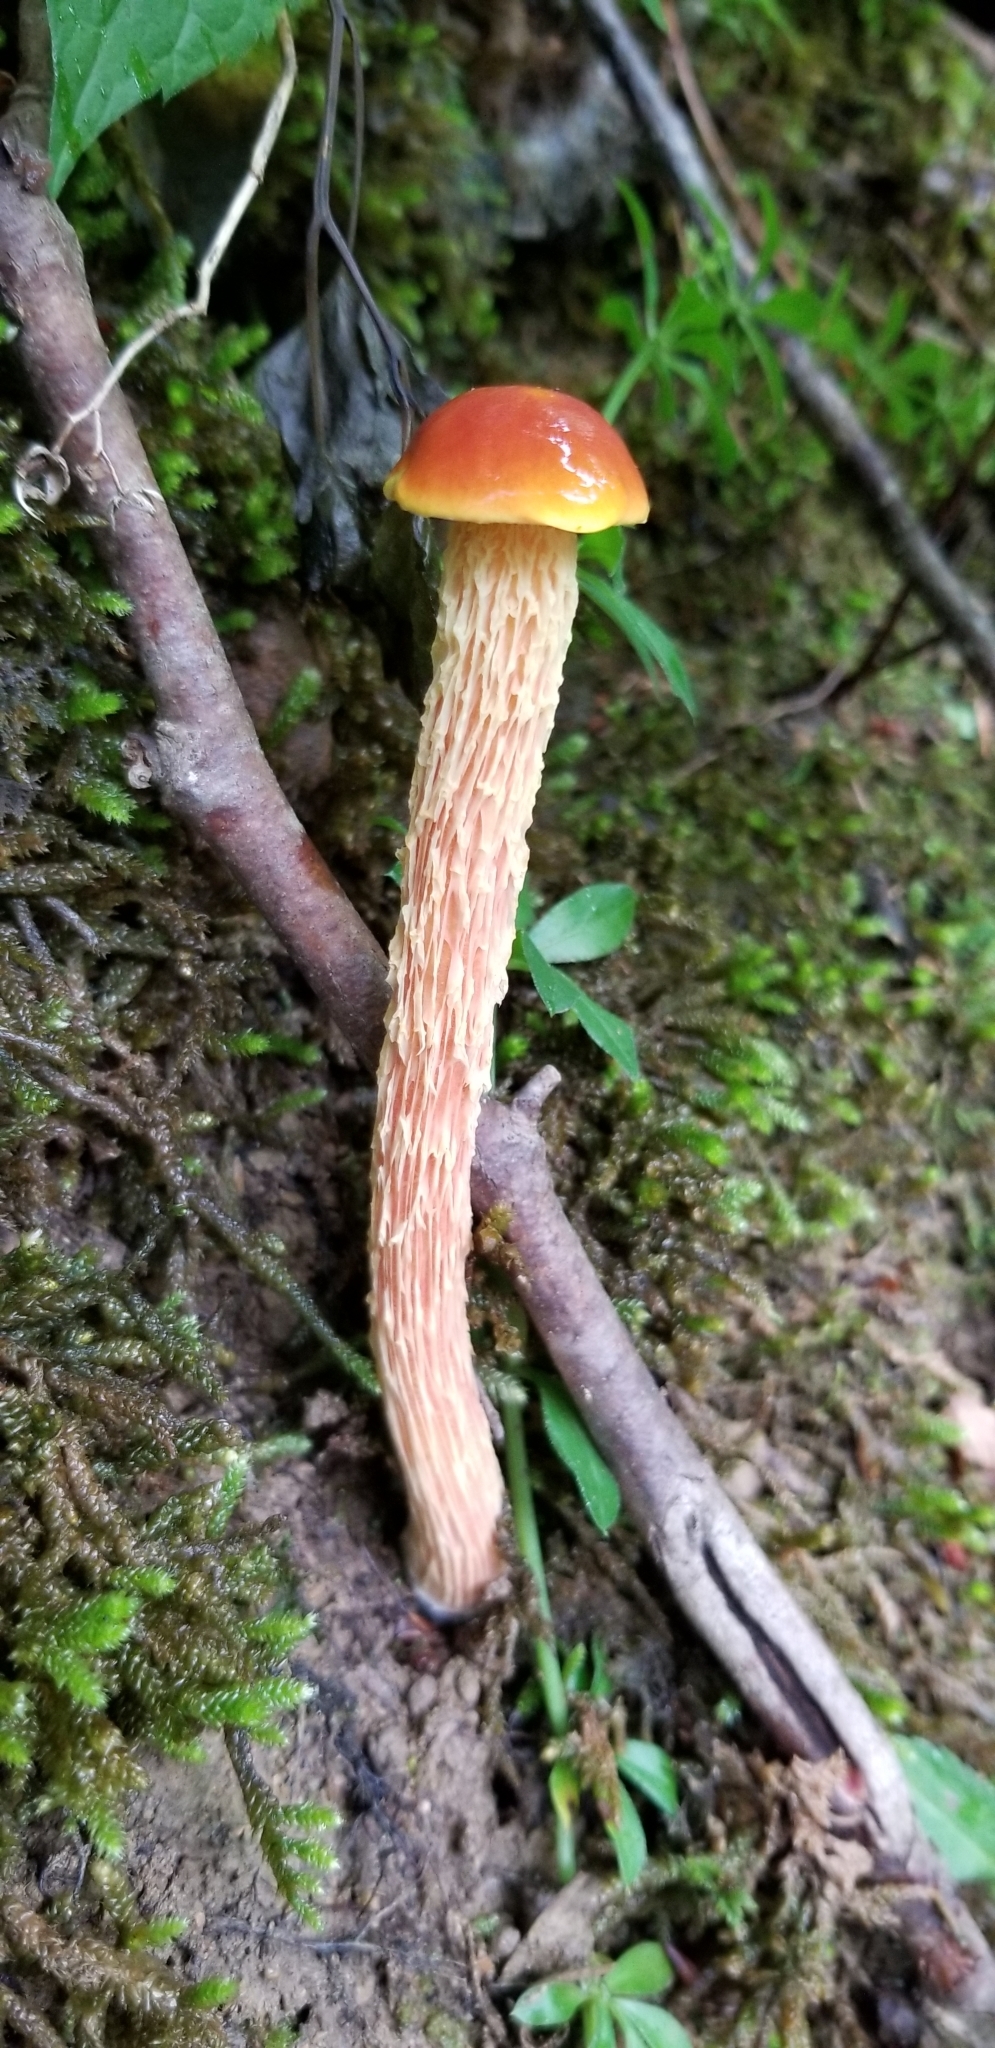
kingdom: Fungi
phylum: Basidiomycota
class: Agaricomycetes
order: Boletales
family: Boletaceae
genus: Aureoboletus
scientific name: Aureoboletus betula
